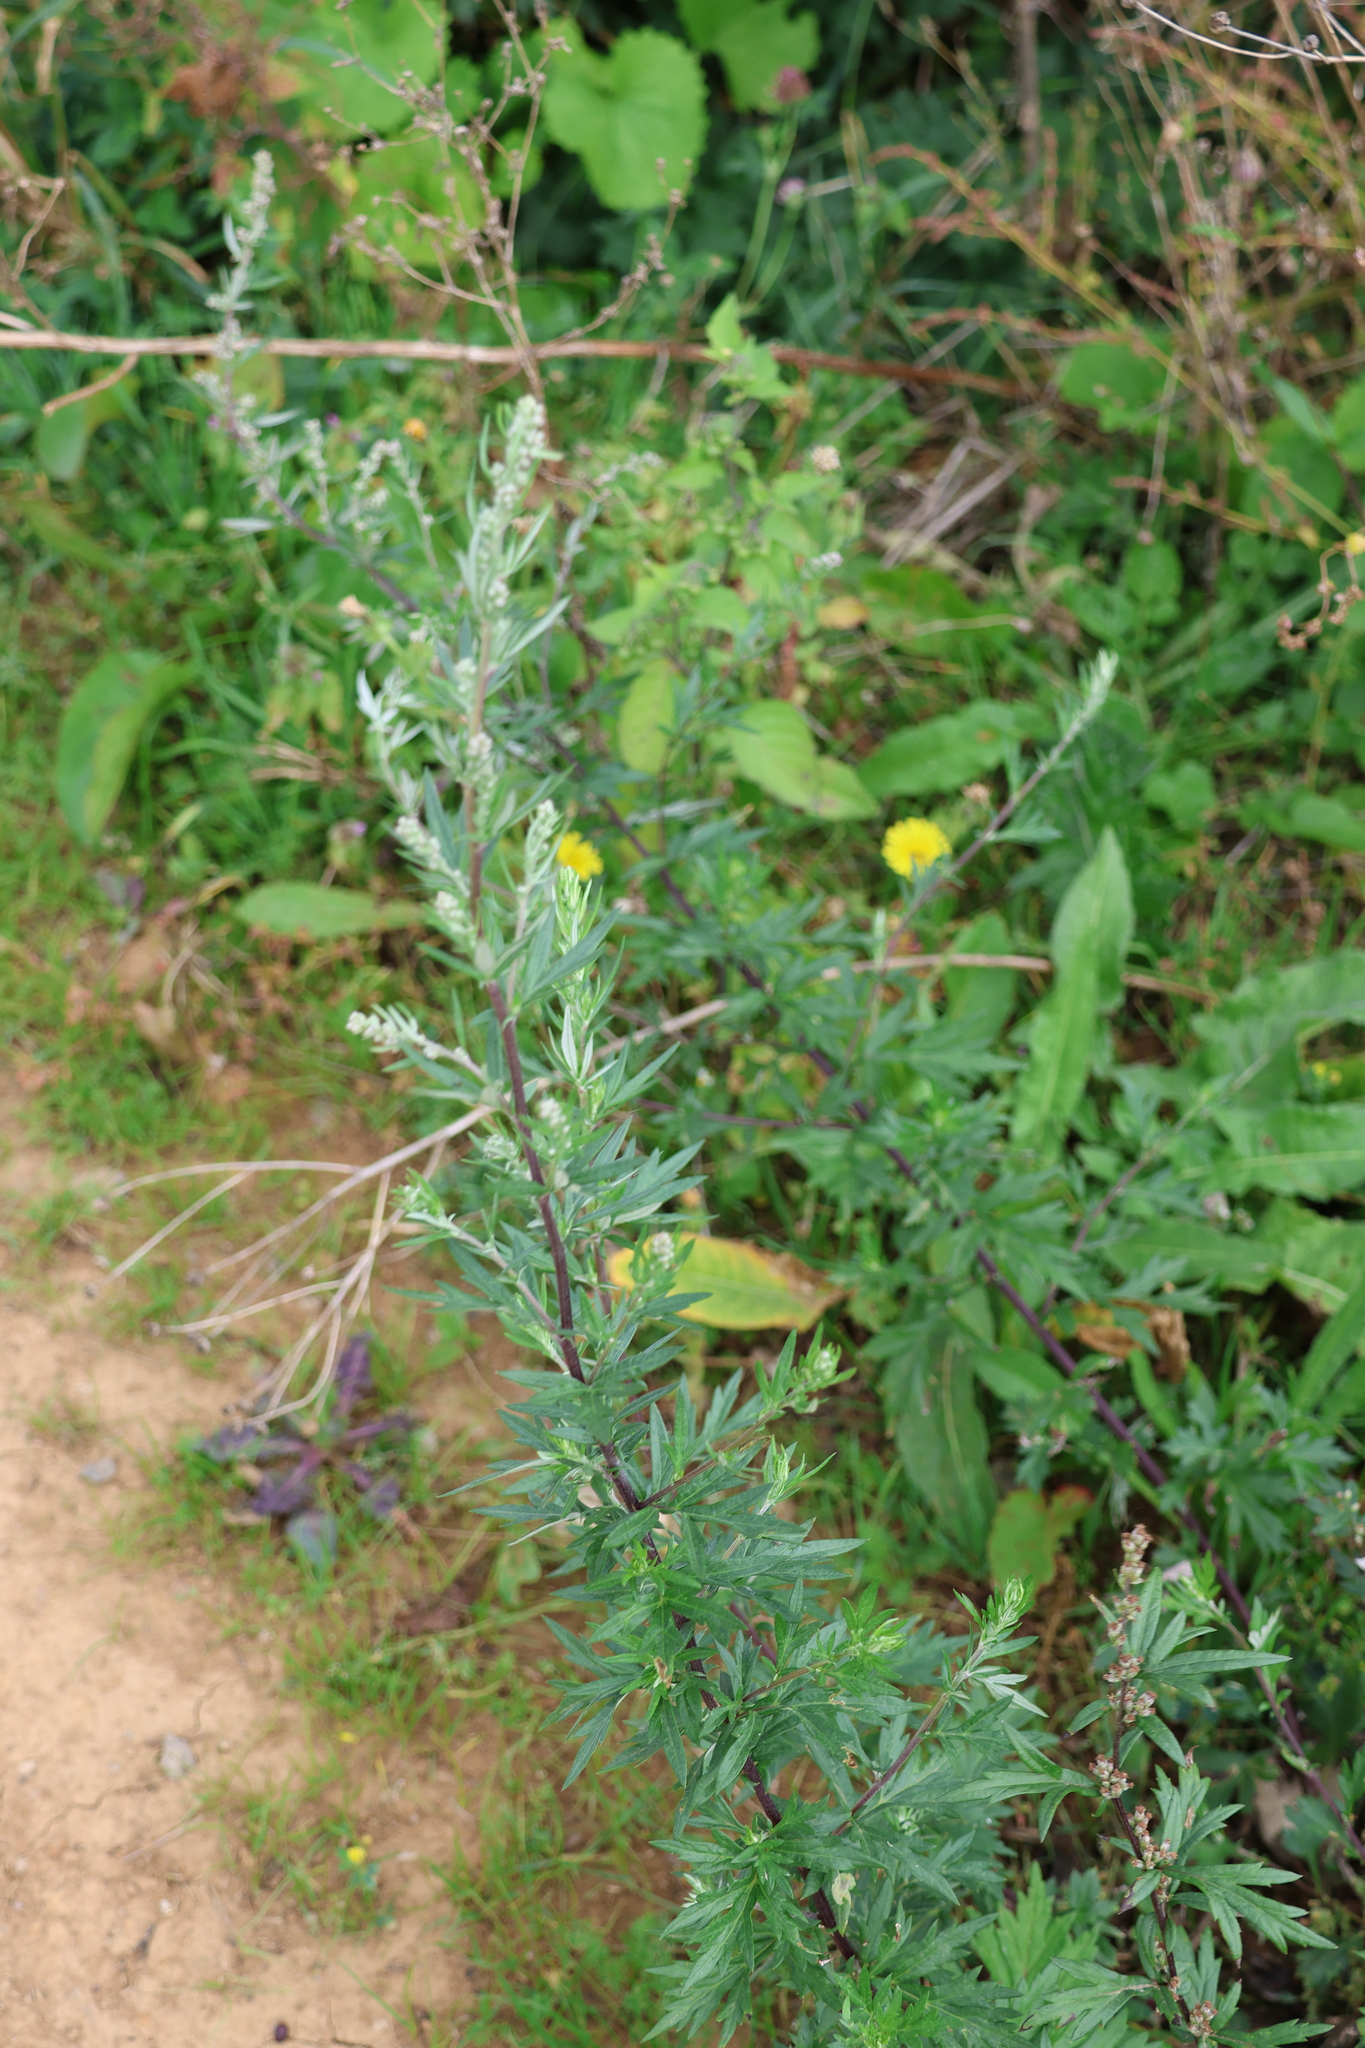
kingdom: Plantae
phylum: Tracheophyta
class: Magnoliopsida
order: Asterales
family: Asteraceae
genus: Artemisia
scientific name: Artemisia vulgaris
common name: Mugwort
